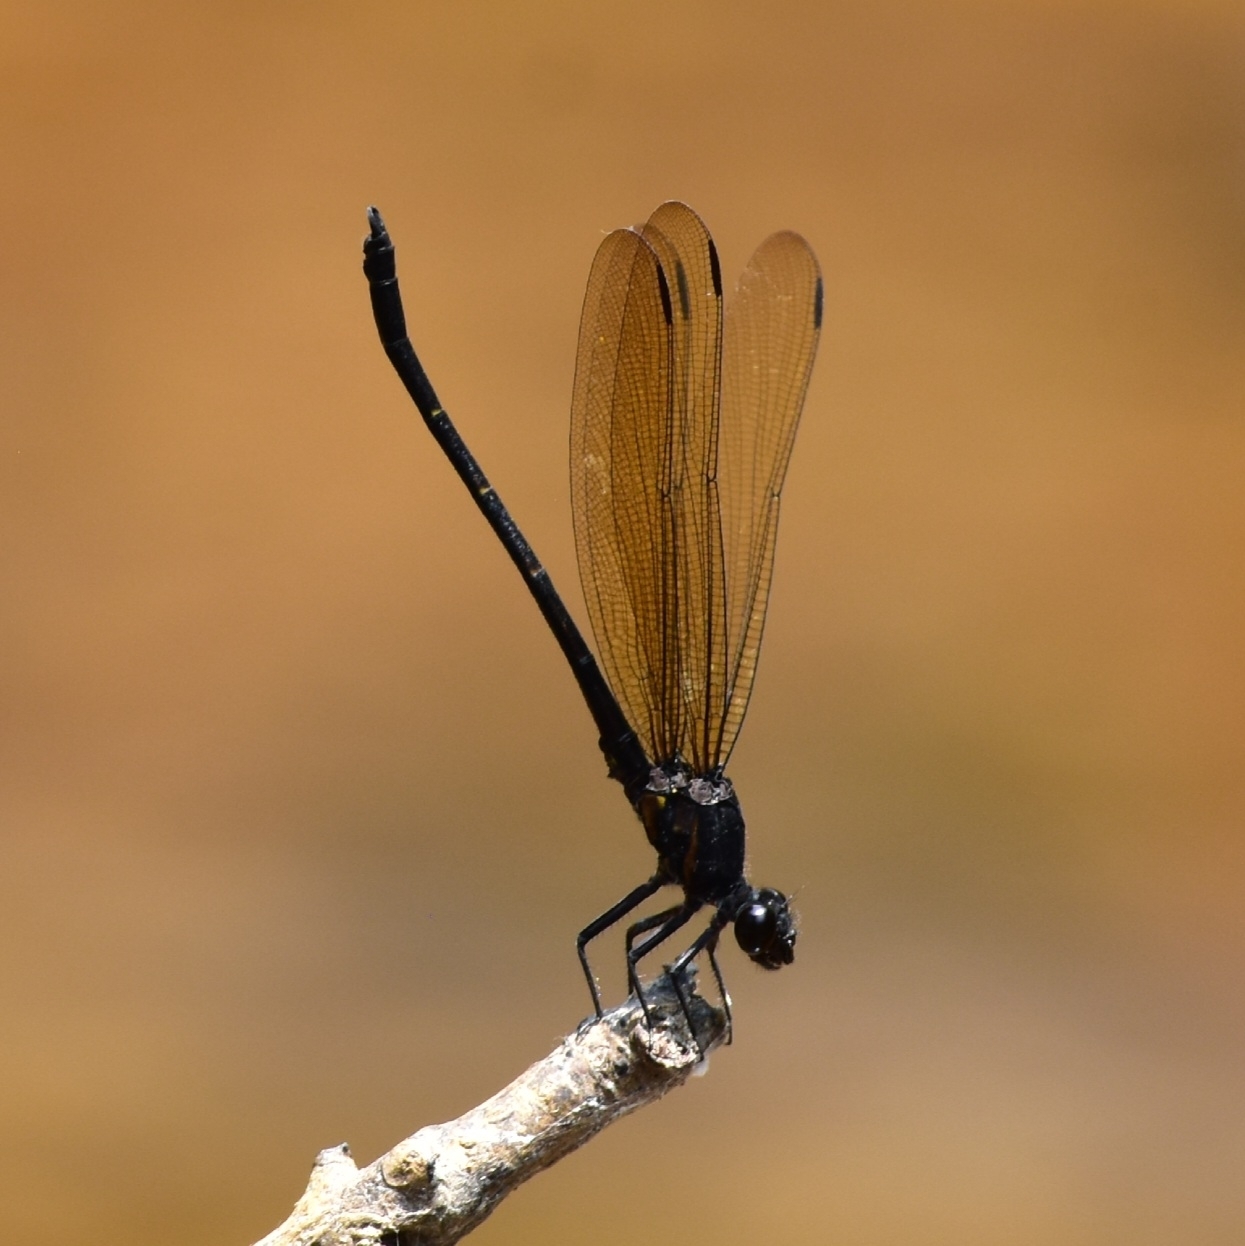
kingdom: Animalia
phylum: Arthropoda
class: Insecta
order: Odonata
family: Euphaeidae
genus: Dysphaea
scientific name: Dysphaea ethela
